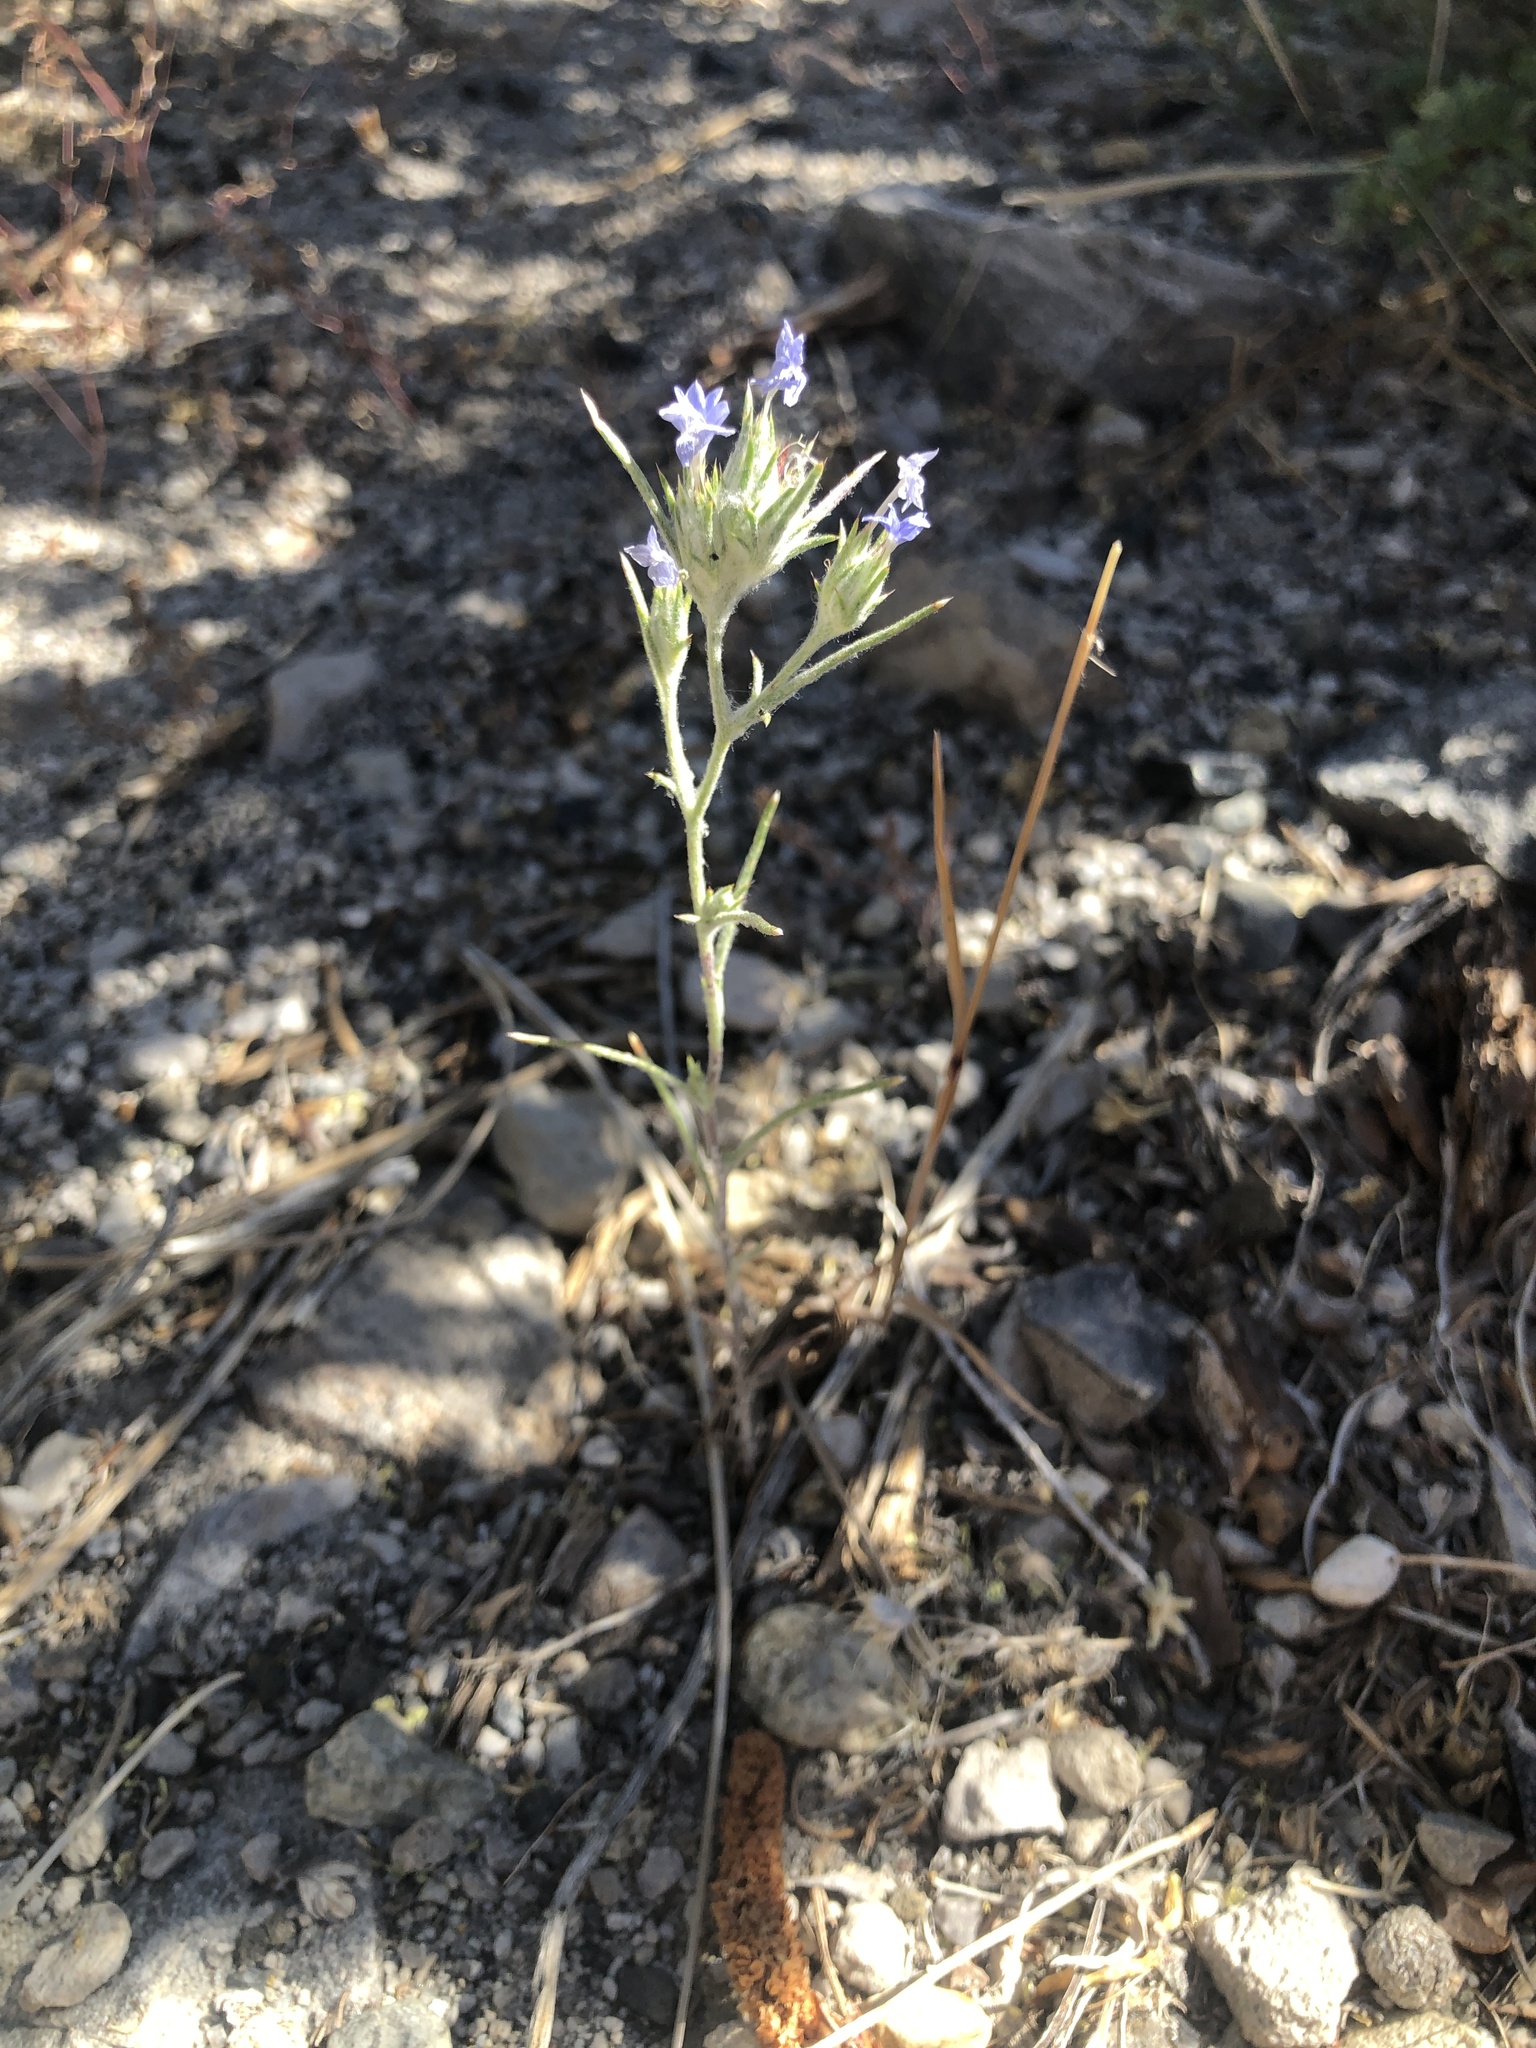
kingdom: Plantae
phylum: Tracheophyta
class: Magnoliopsida
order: Ericales
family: Polemoniaceae
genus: Eriastrum
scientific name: Eriastrum wilcoxii
